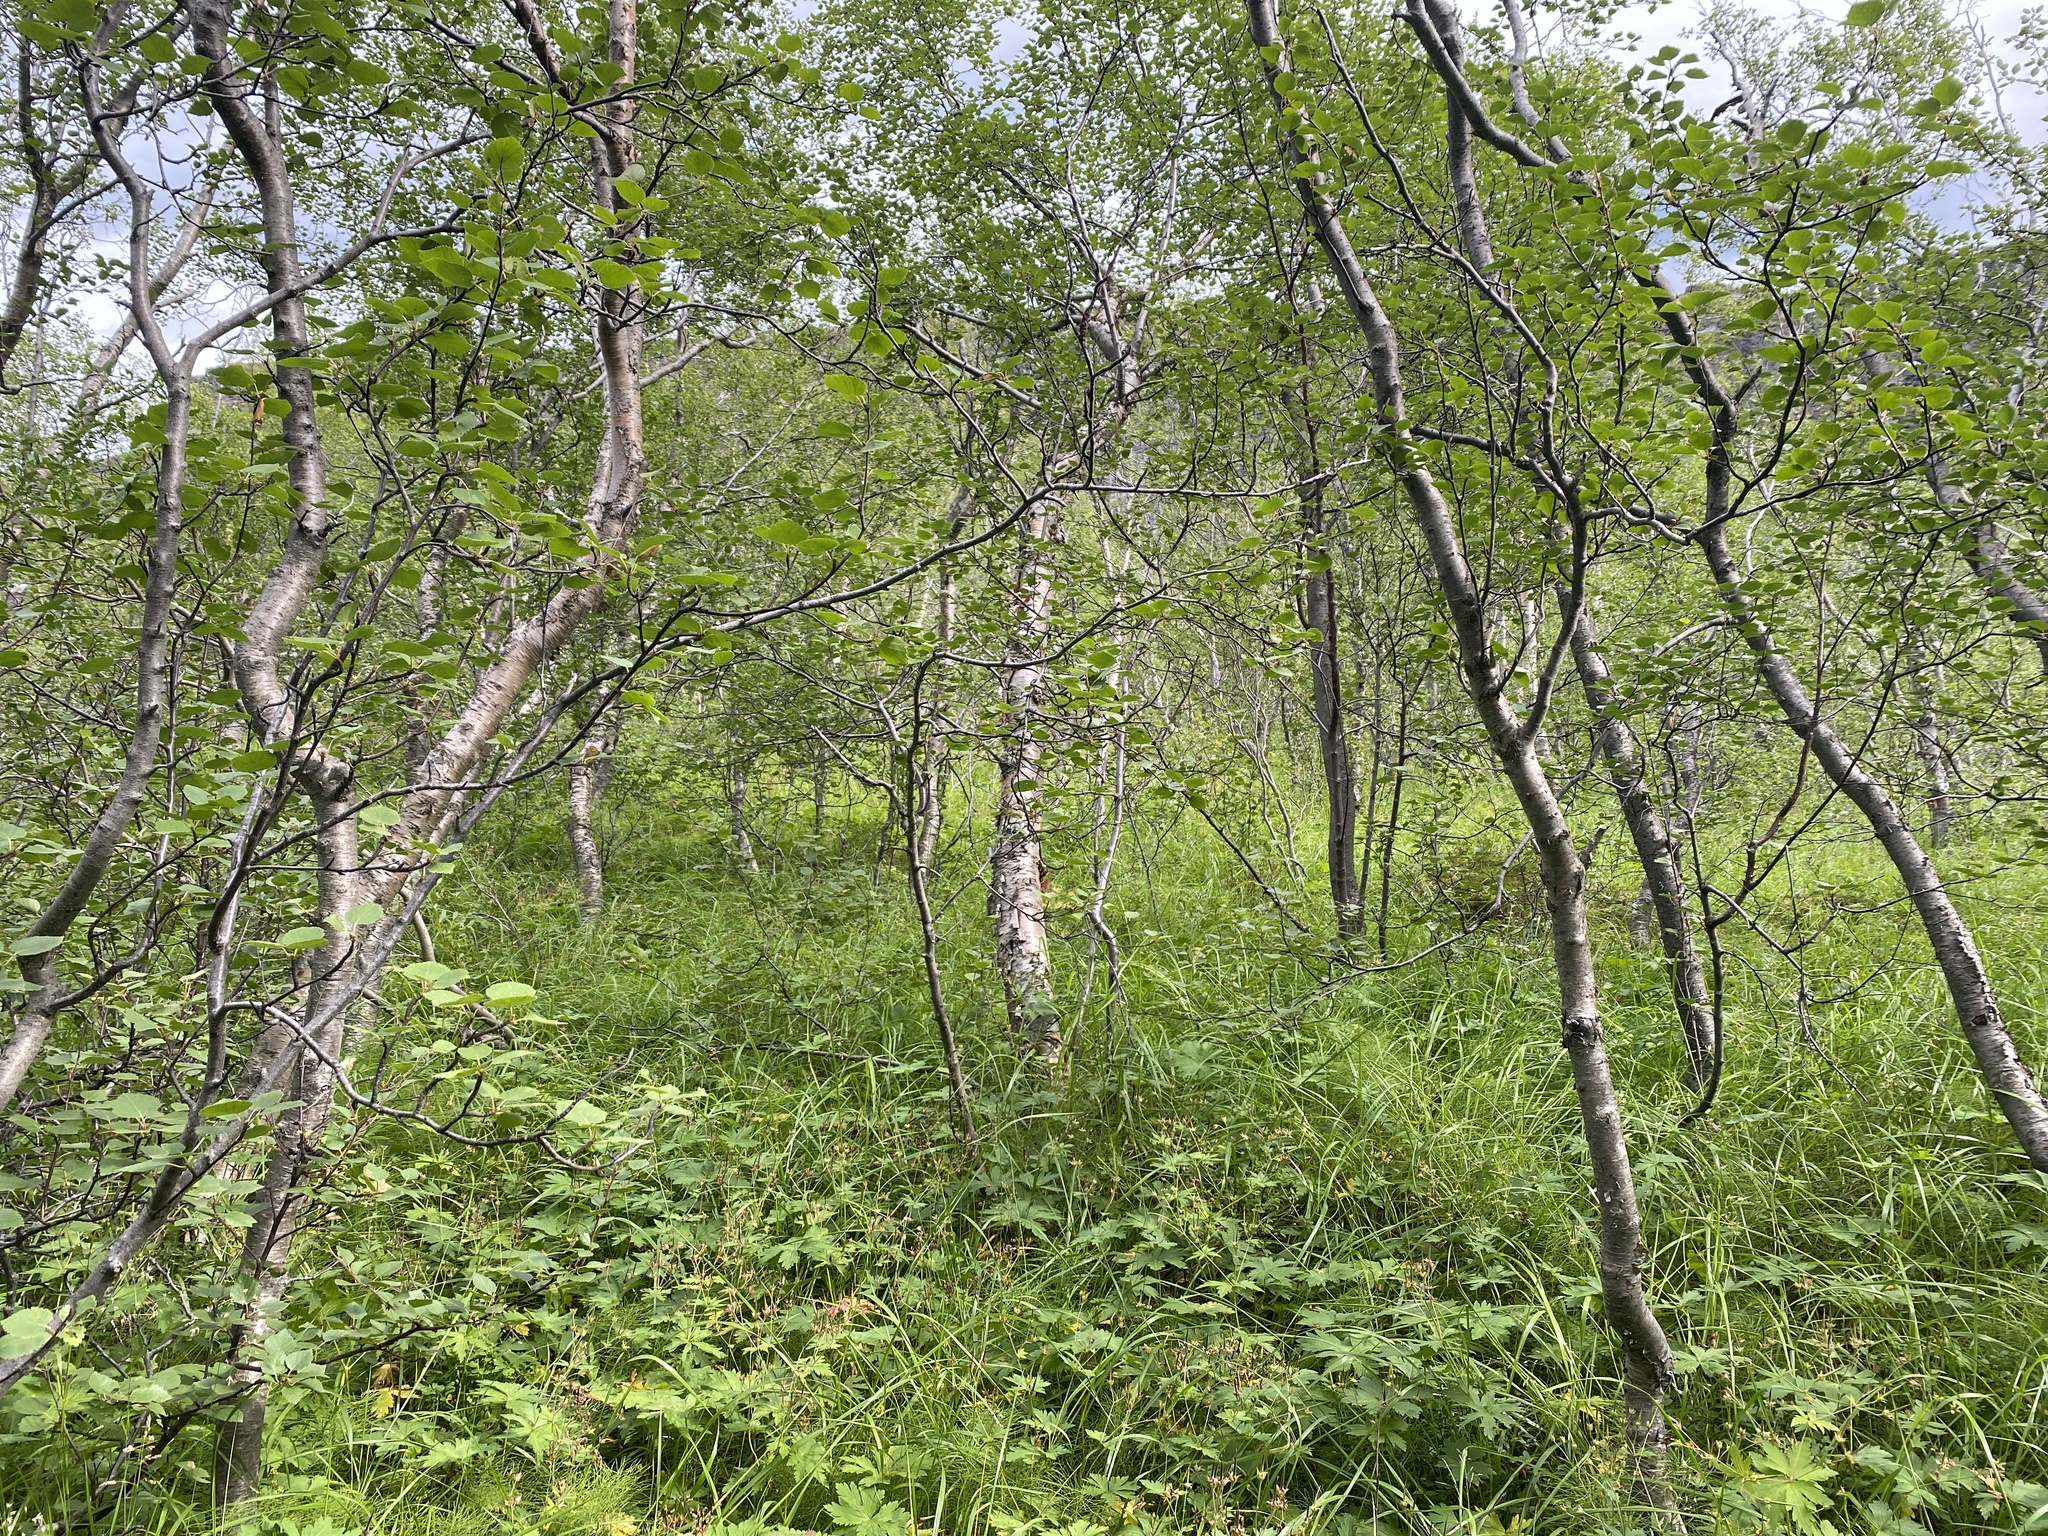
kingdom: Plantae
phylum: Tracheophyta
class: Magnoliopsida
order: Fagales
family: Betulaceae
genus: Betula
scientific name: Betula pubescens
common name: Downy birch
